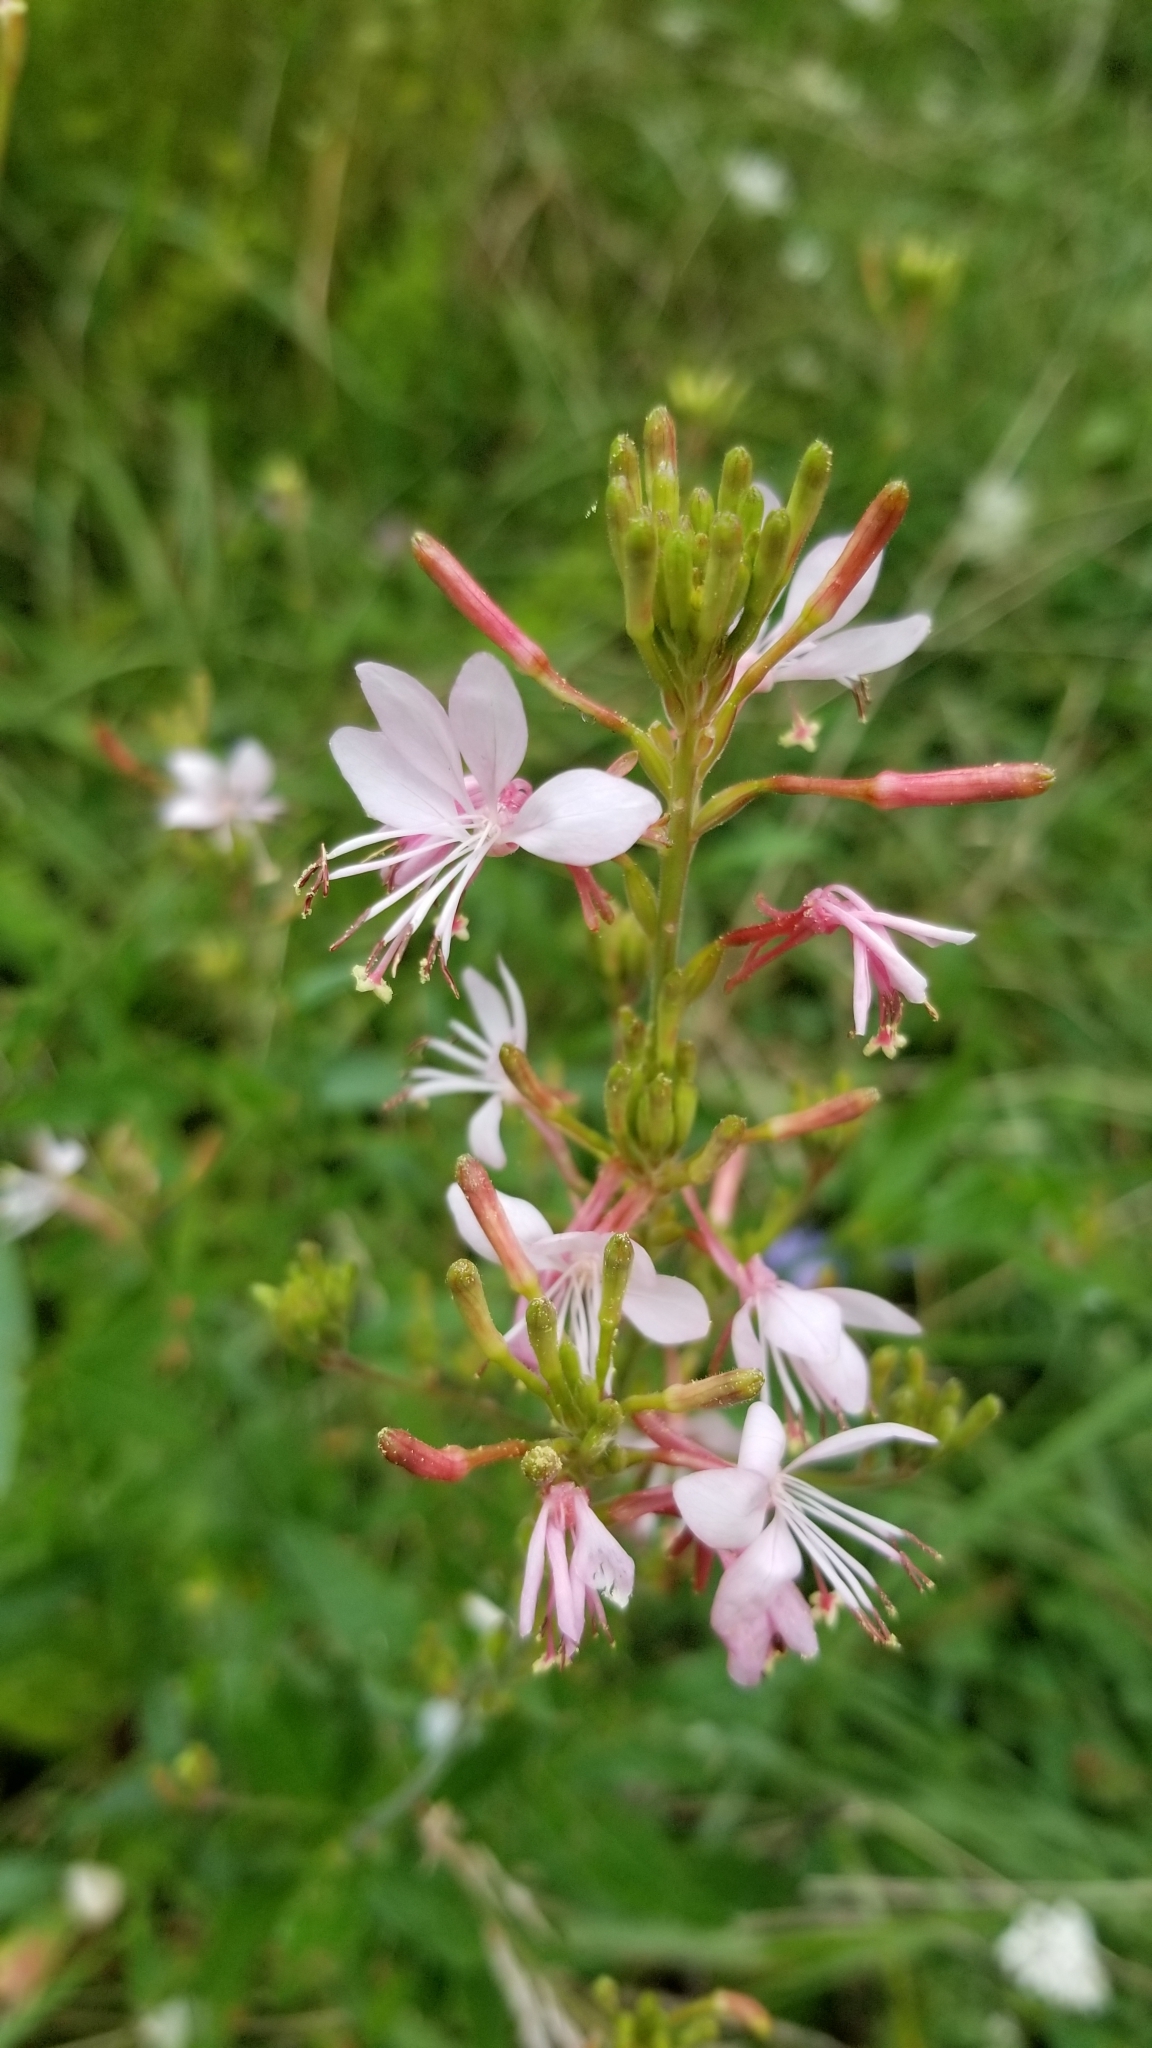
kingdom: Plantae
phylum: Tracheophyta
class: Magnoliopsida
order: Myrtales
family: Onagraceae
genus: Oenothera
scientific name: Oenothera gaura
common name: Biennial beeblossom
